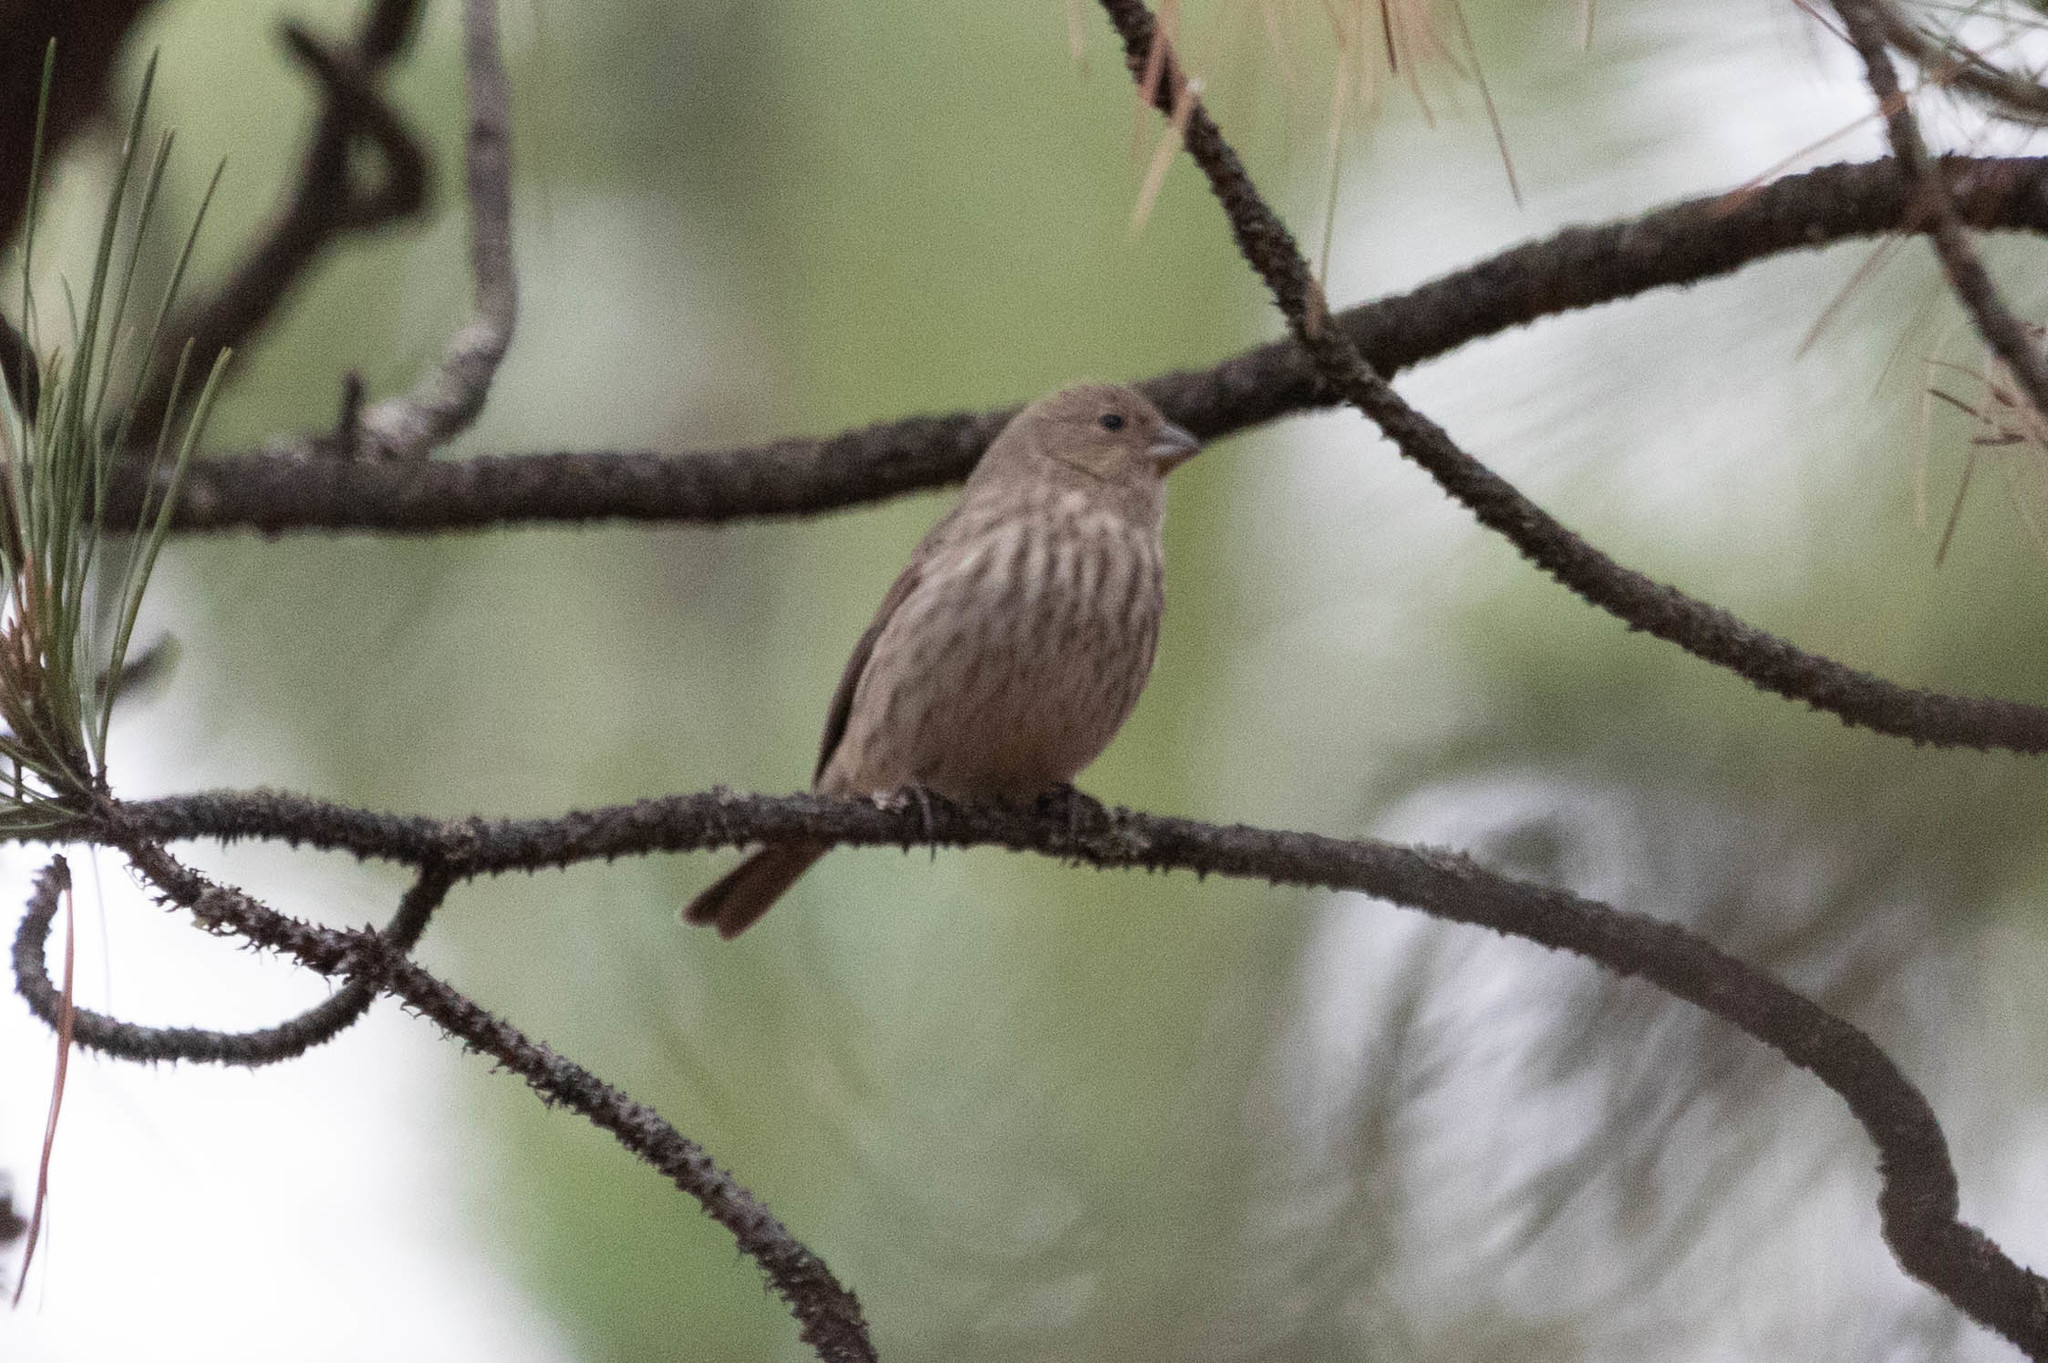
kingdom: Animalia
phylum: Chordata
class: Aves
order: Passeriformes
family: Fringillidae
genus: Haemorhous
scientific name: Haemorhous mexicanus
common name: House finch
